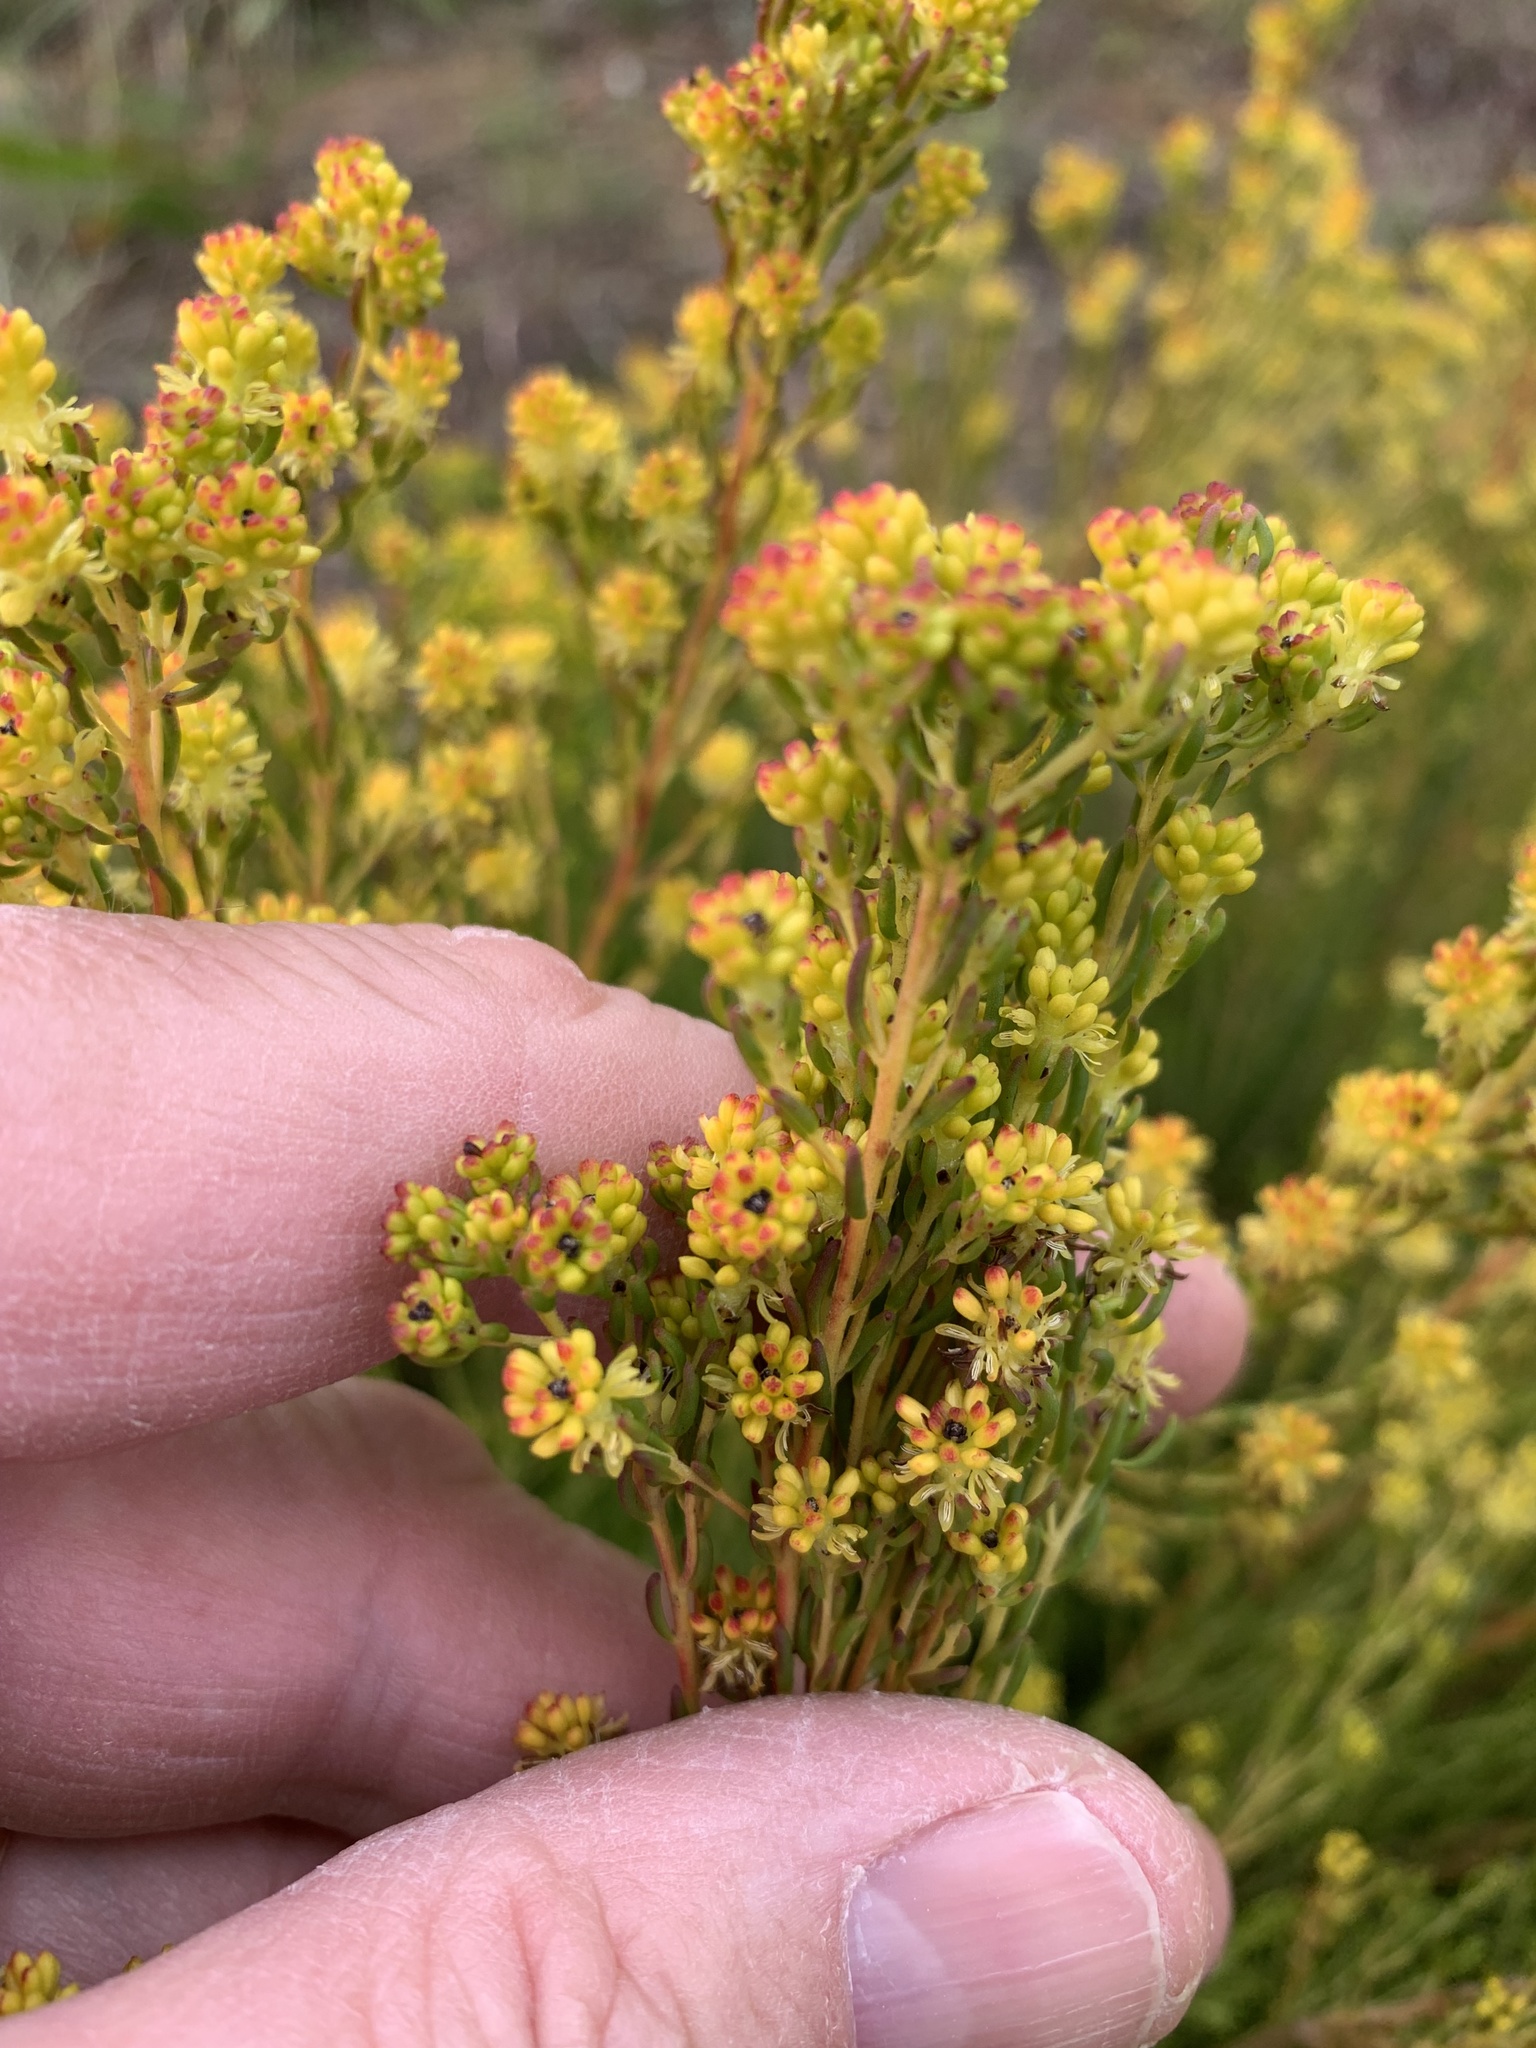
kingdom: Plantae
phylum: Tracheophyta
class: Magnoliopsida
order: Proteales
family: Proteaceae
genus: Leucadendron
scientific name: Leucadendron linifolium
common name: Line-leaf conebush
